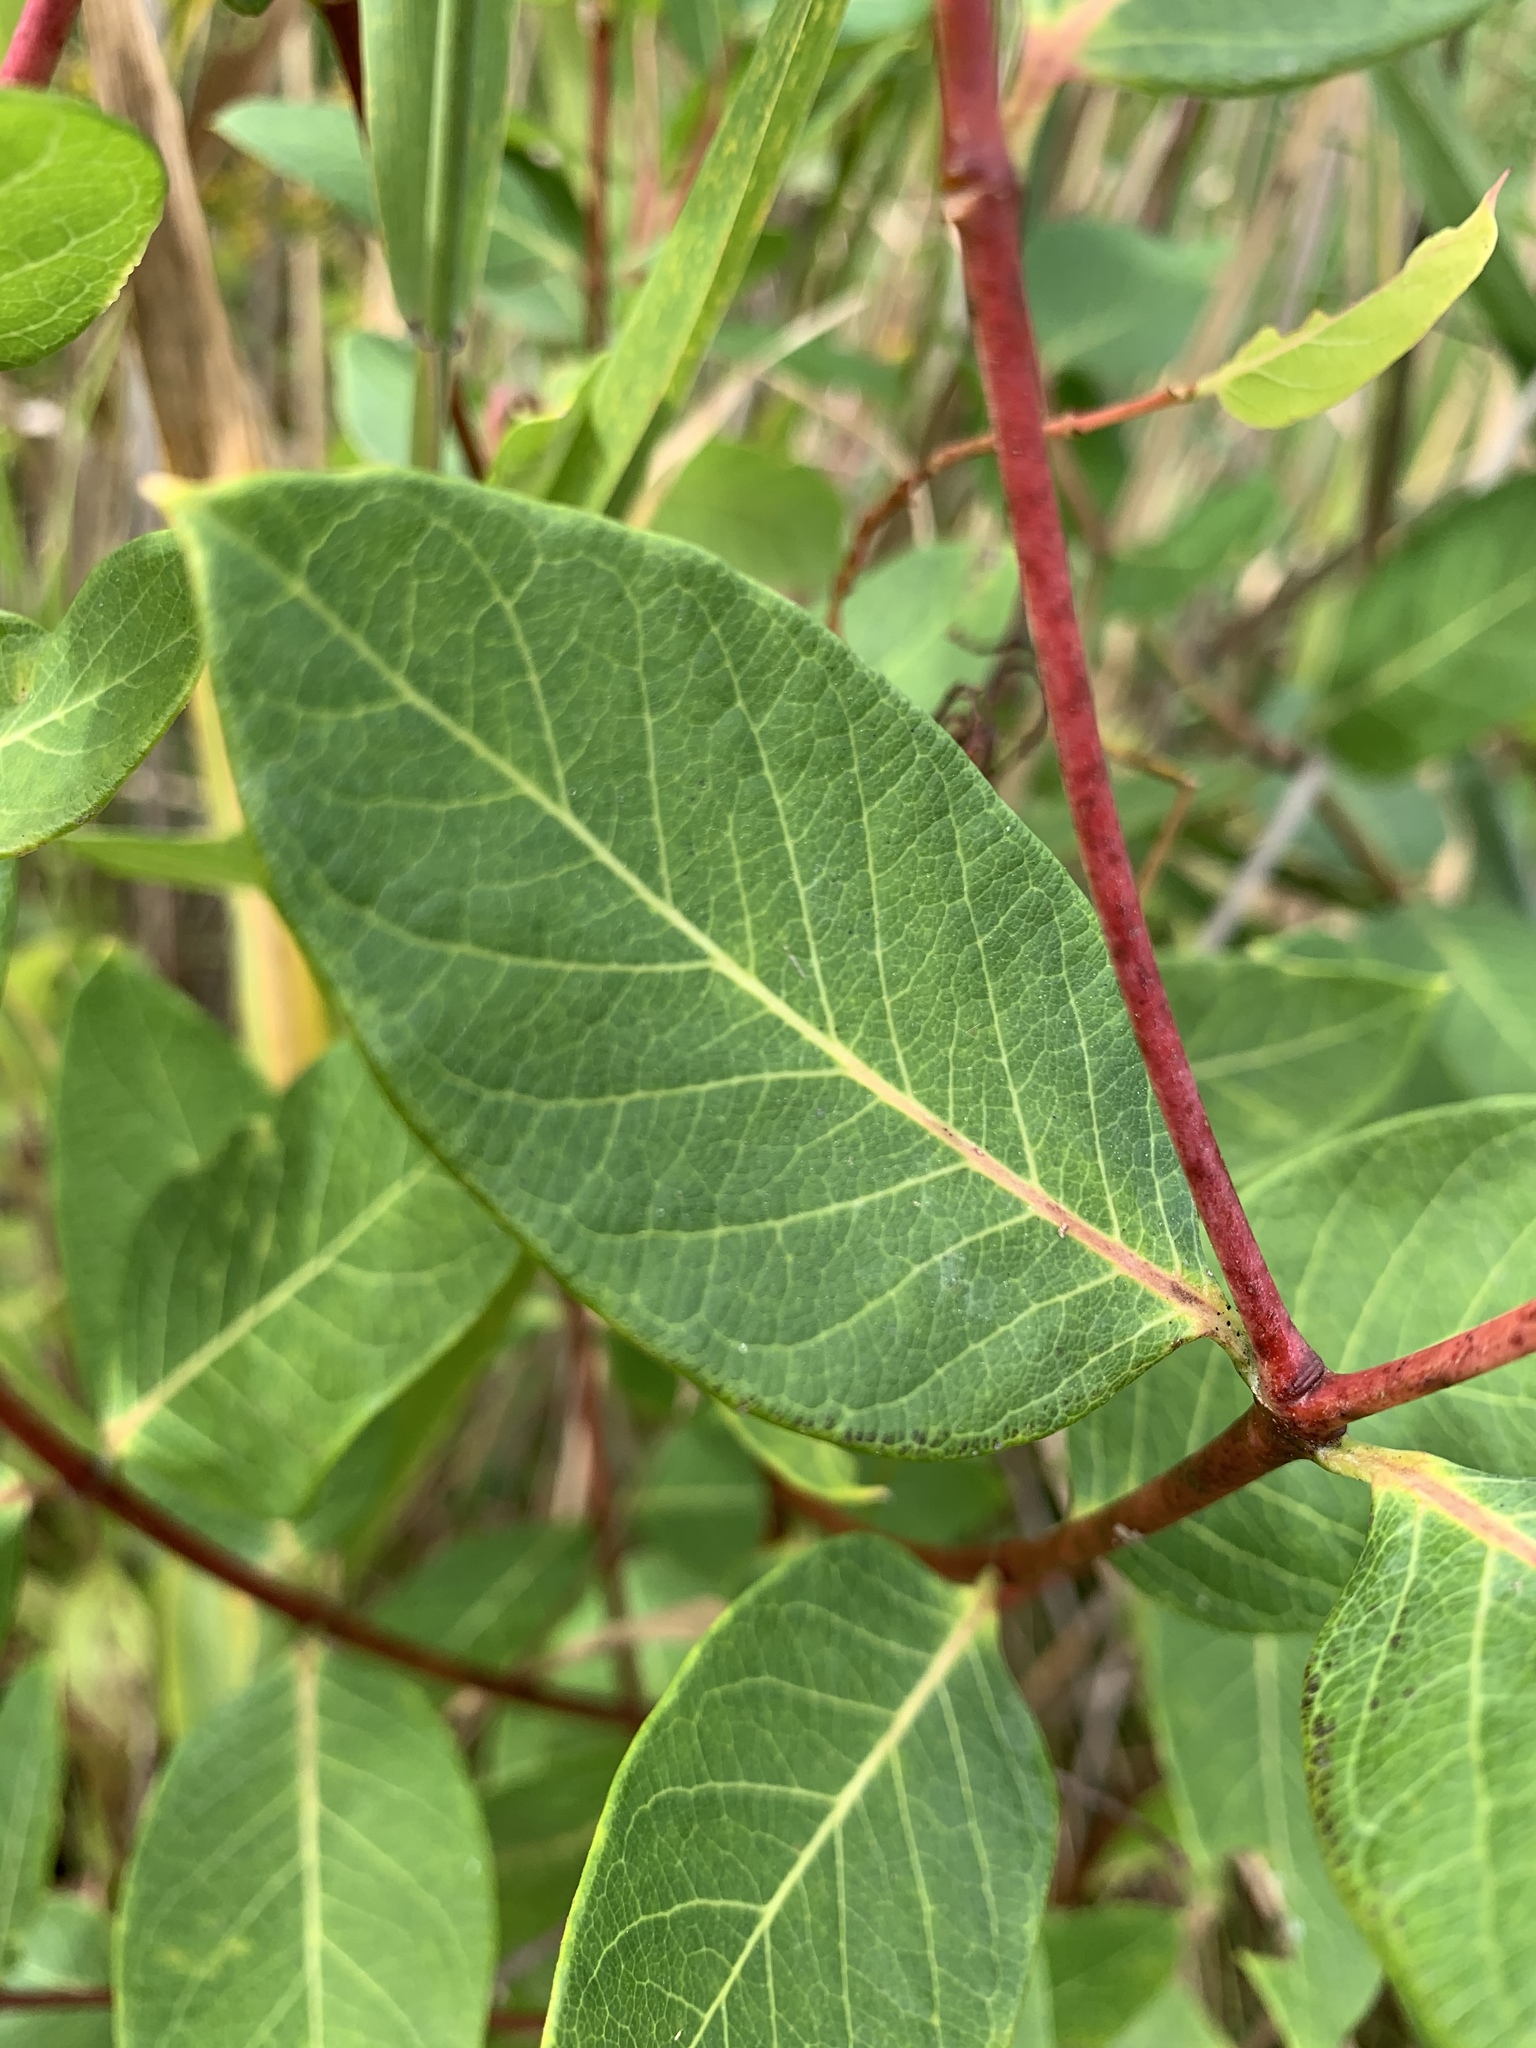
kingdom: Plantae
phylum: Tracheophyta
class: Magnoliopsida
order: Gentianales
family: Apocynaceae
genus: Apocynum
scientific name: Apocynum cannabinum
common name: Hemp dogbane
